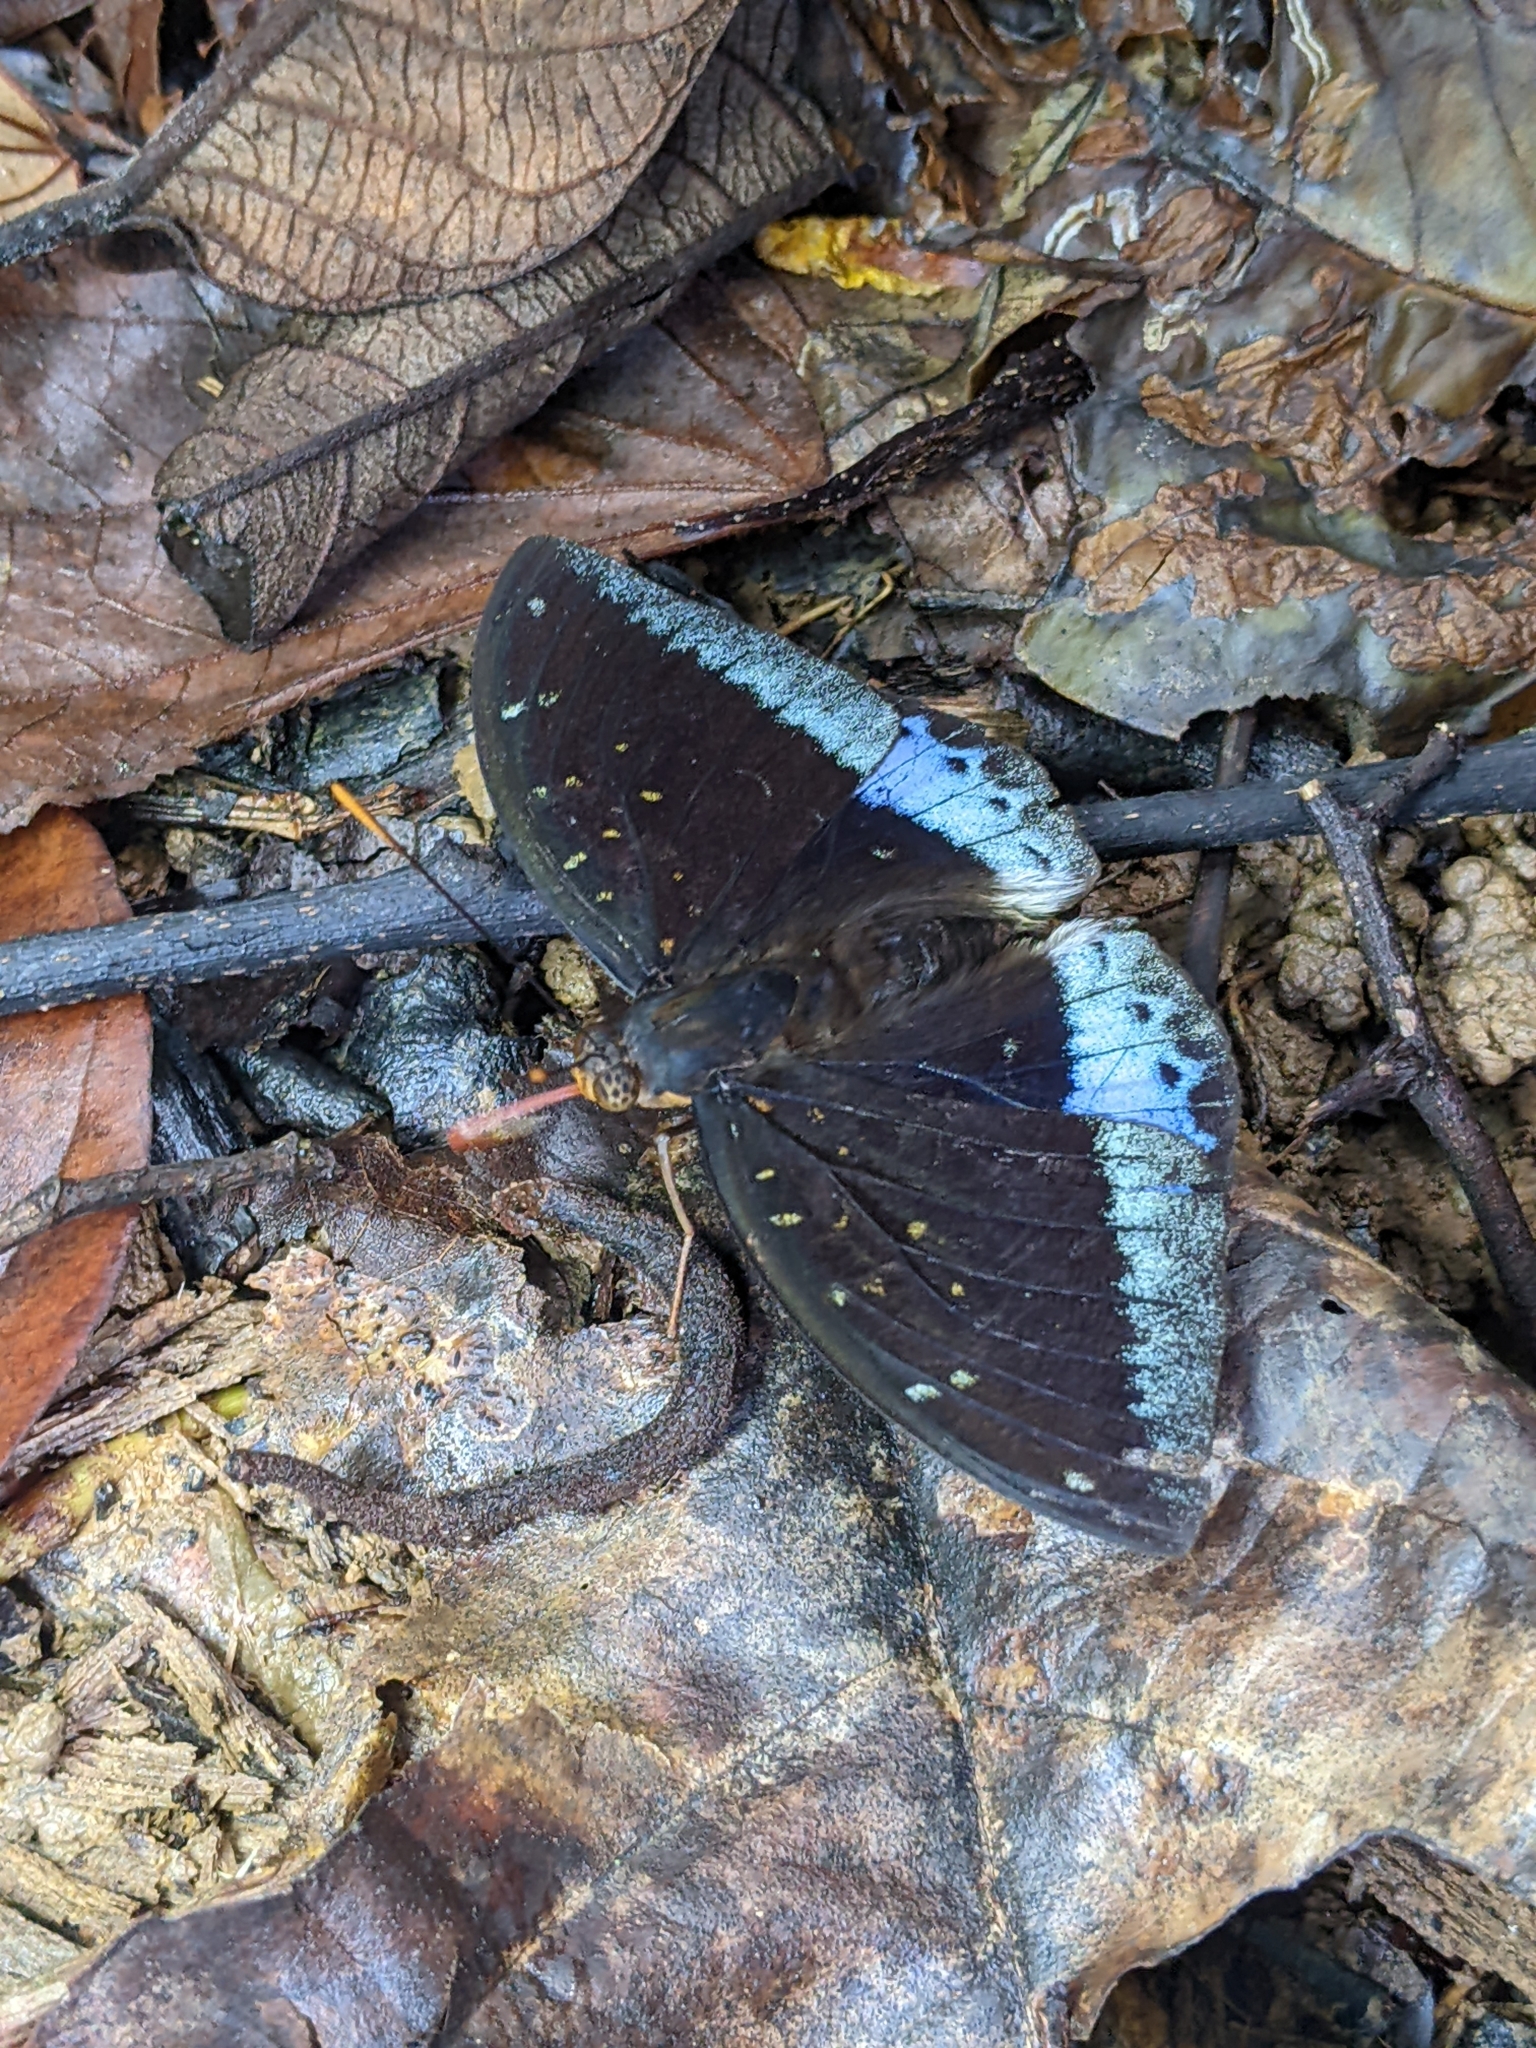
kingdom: Animalia
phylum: Arthropoda
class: Insecta
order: Lepidoptera
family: Nymphalidae
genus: Lexias
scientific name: Lexias pardalis
